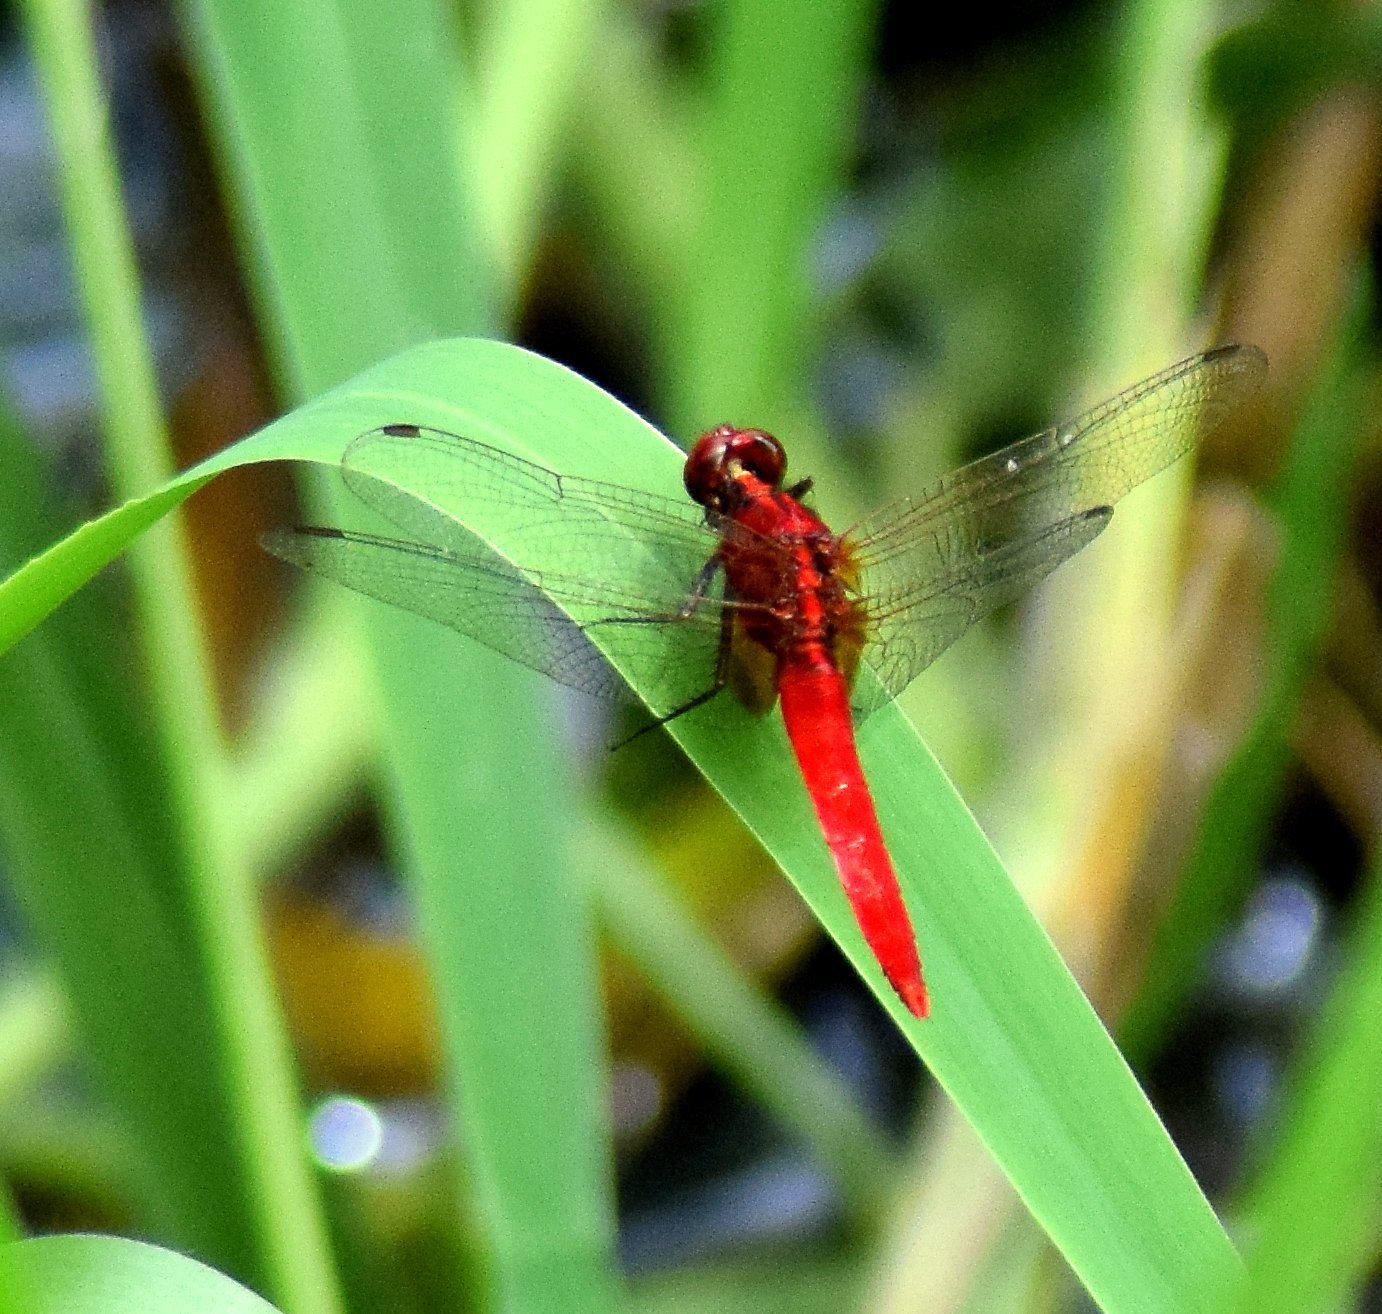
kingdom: Animalia
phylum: Arthropoda
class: Insecta
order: Odonata
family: Libellulidae
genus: Rhodothemis
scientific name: Rhodothemis rufa
